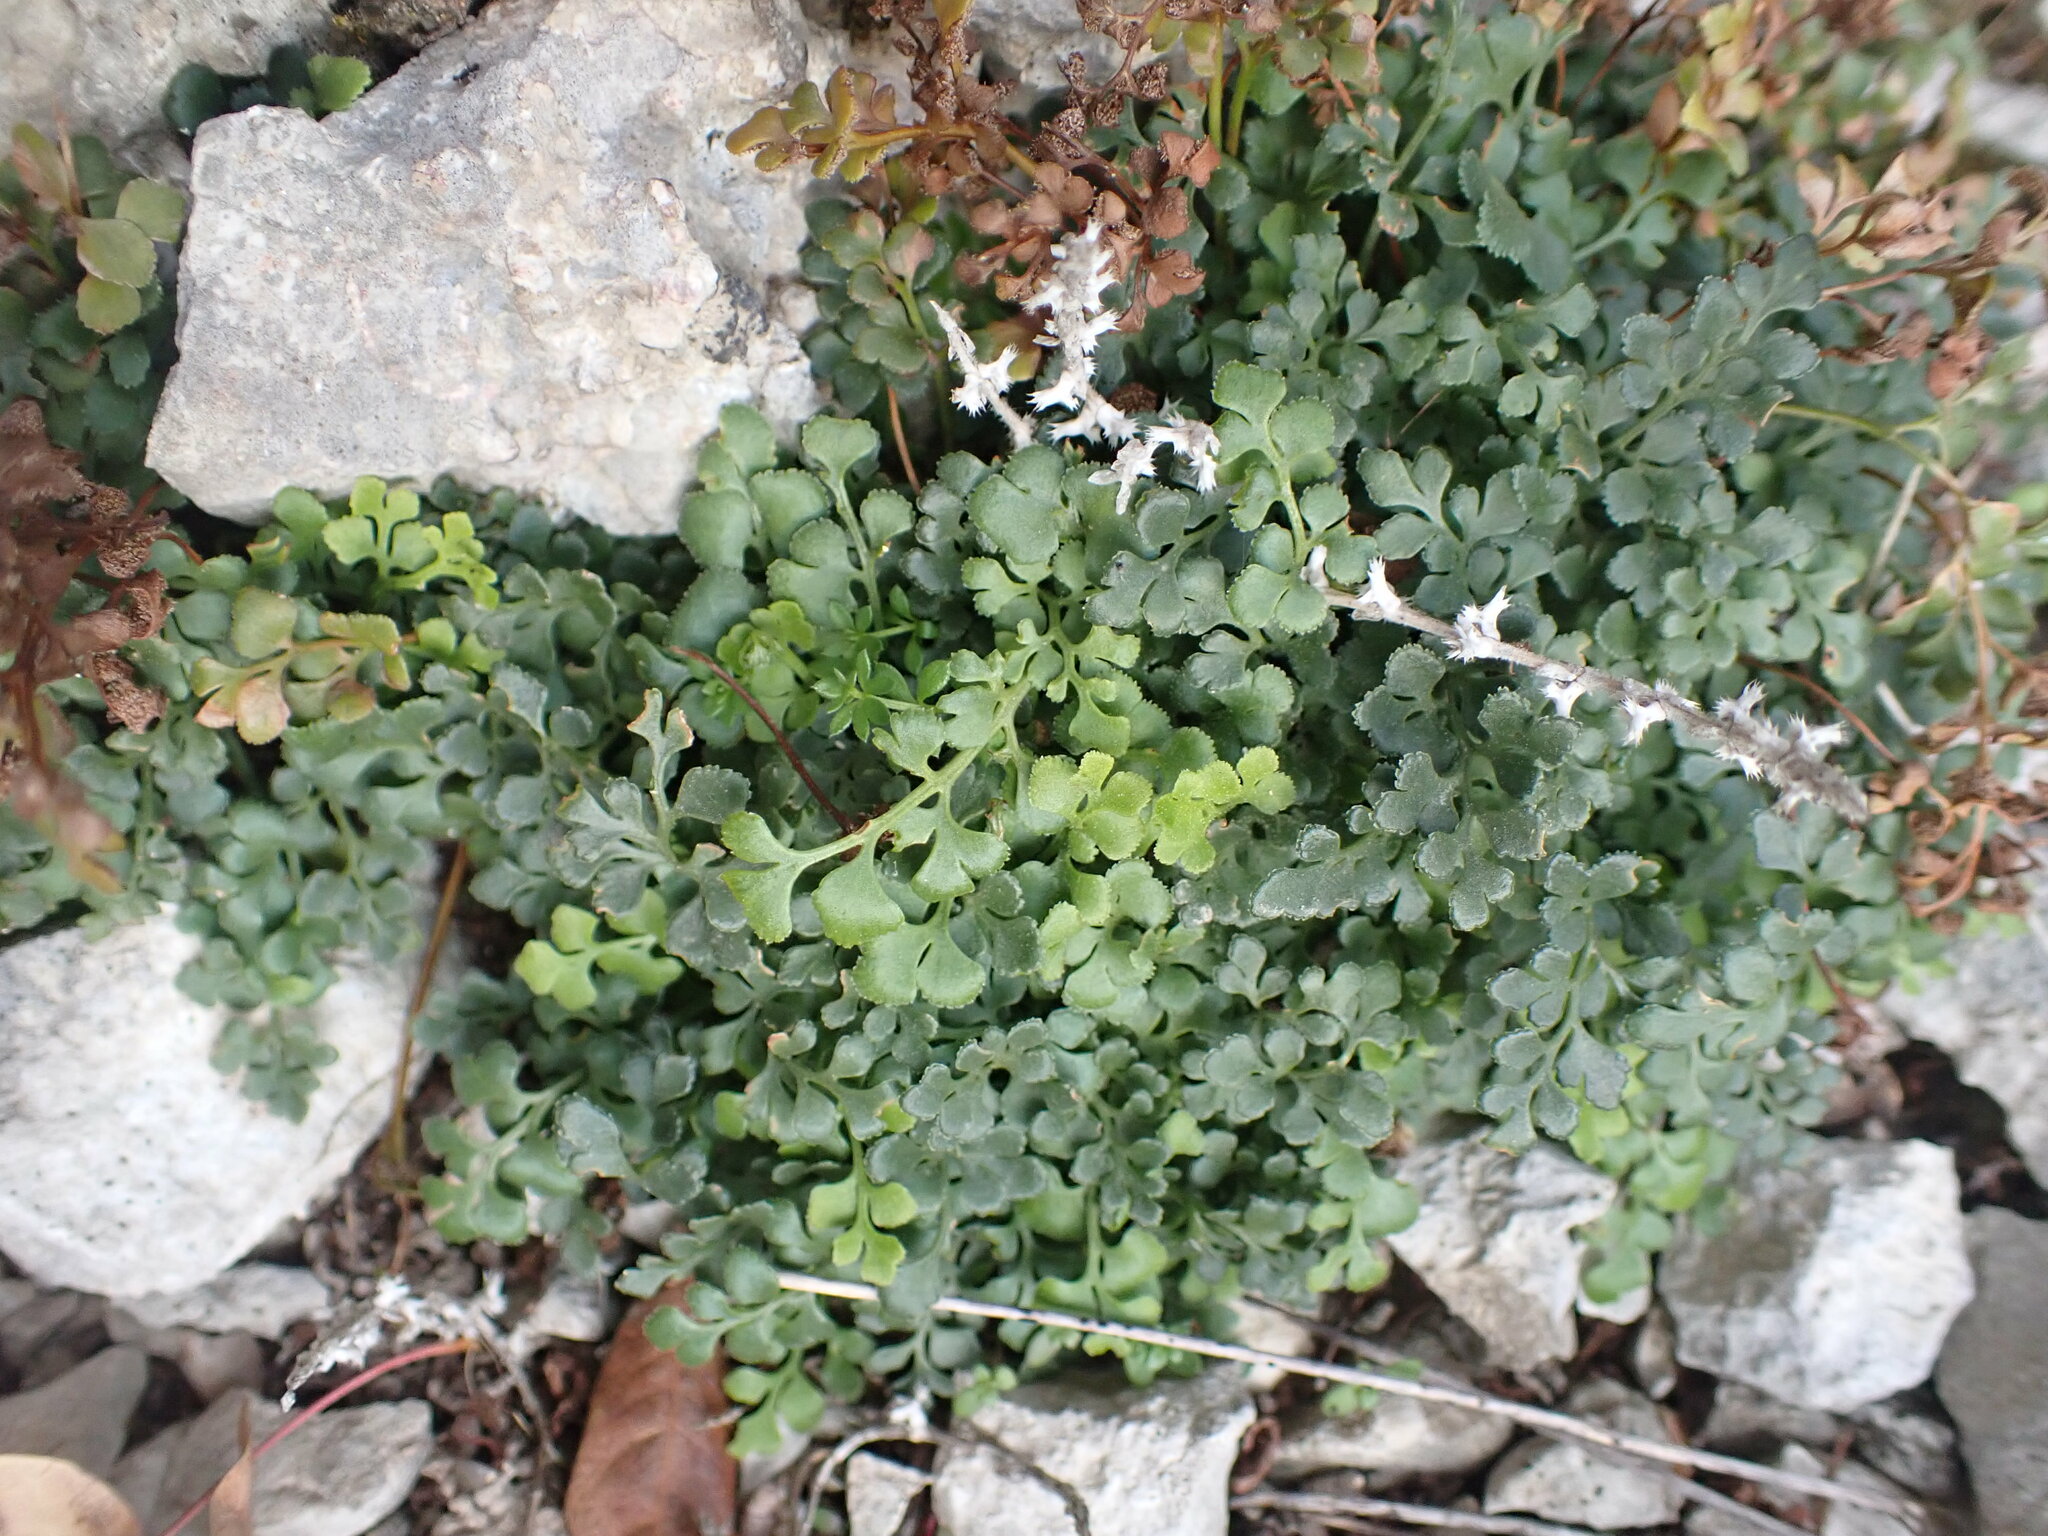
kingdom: Plantae
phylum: Tracheophyta
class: Polypodiopsida
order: Polypodiales
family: Aspleniaceae
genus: Asplenium
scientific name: Asplenium ruta-muraria
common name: Wall-rue
